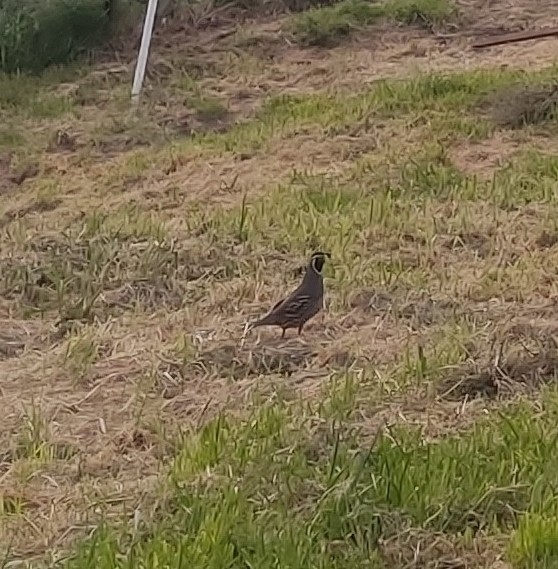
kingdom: Animalia
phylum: Chordata
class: Aves
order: Galliformes
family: Odontophoridae
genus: Callipepla
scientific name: Callipepla californica
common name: California quail
